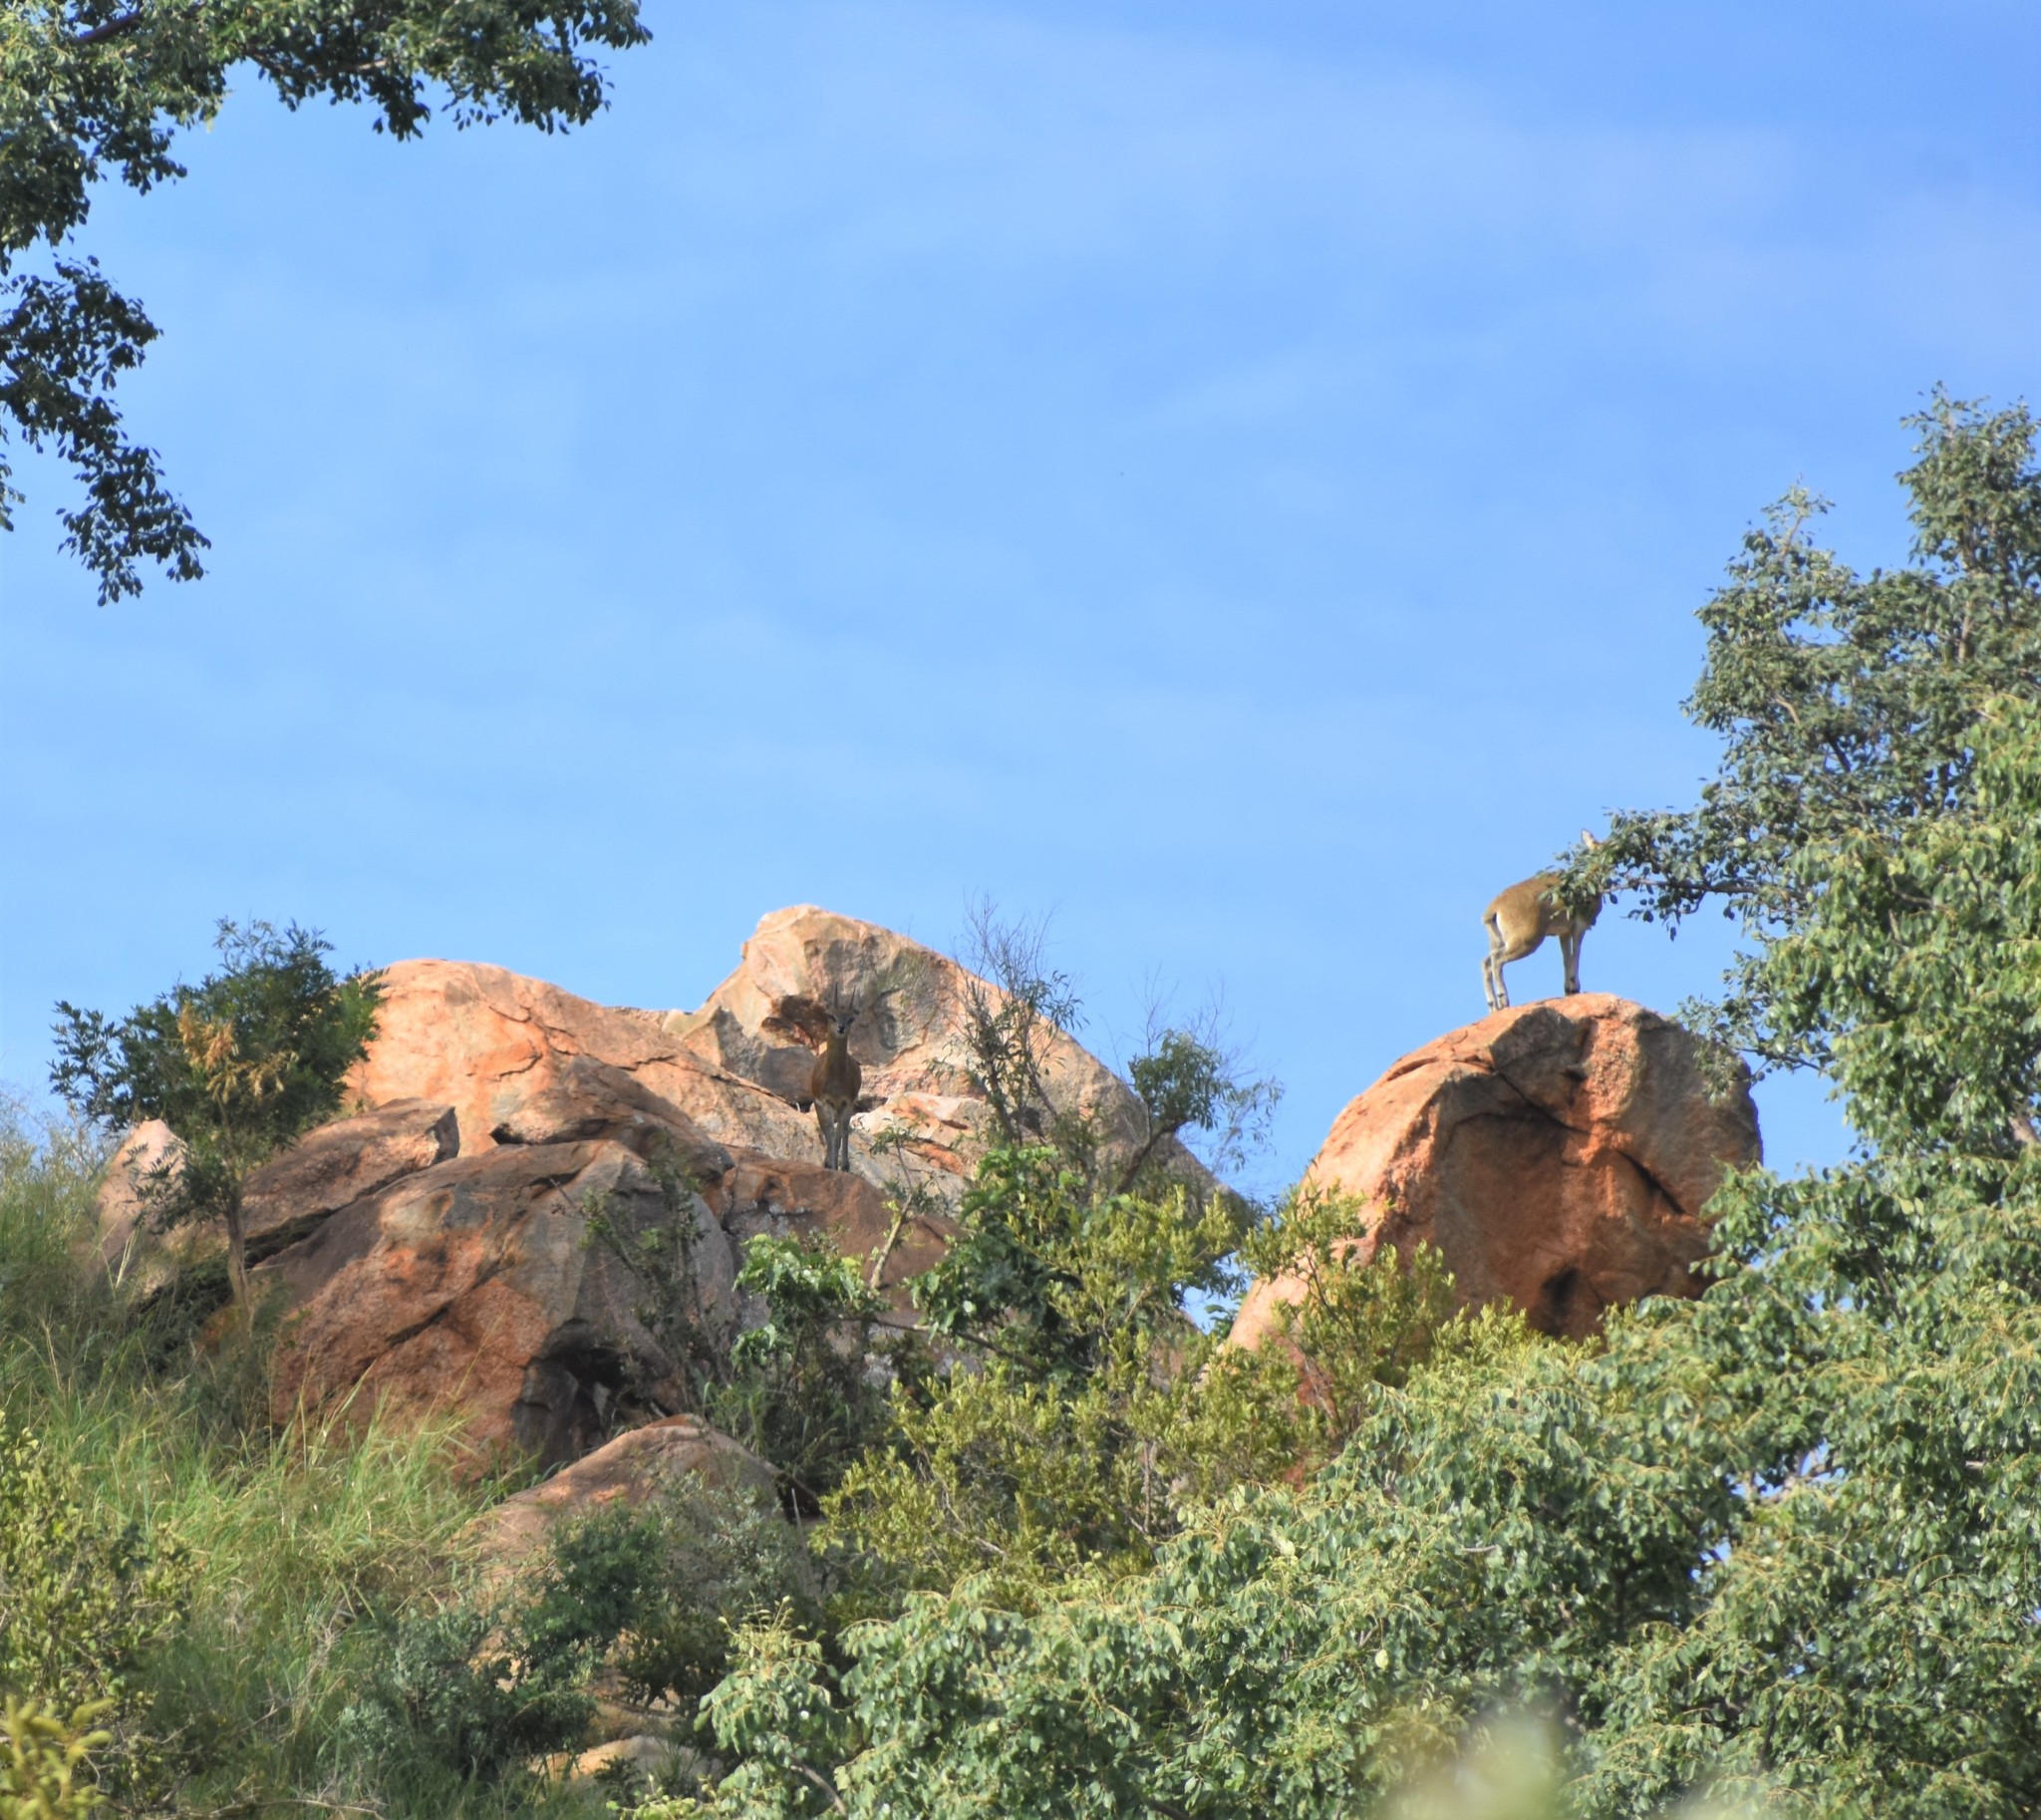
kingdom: Animalia
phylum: Chordata
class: Mammalia
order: Artiodactyla
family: Bovidae
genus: Oreotragus
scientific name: Oreotragus oreotragus
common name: Klipspringer
